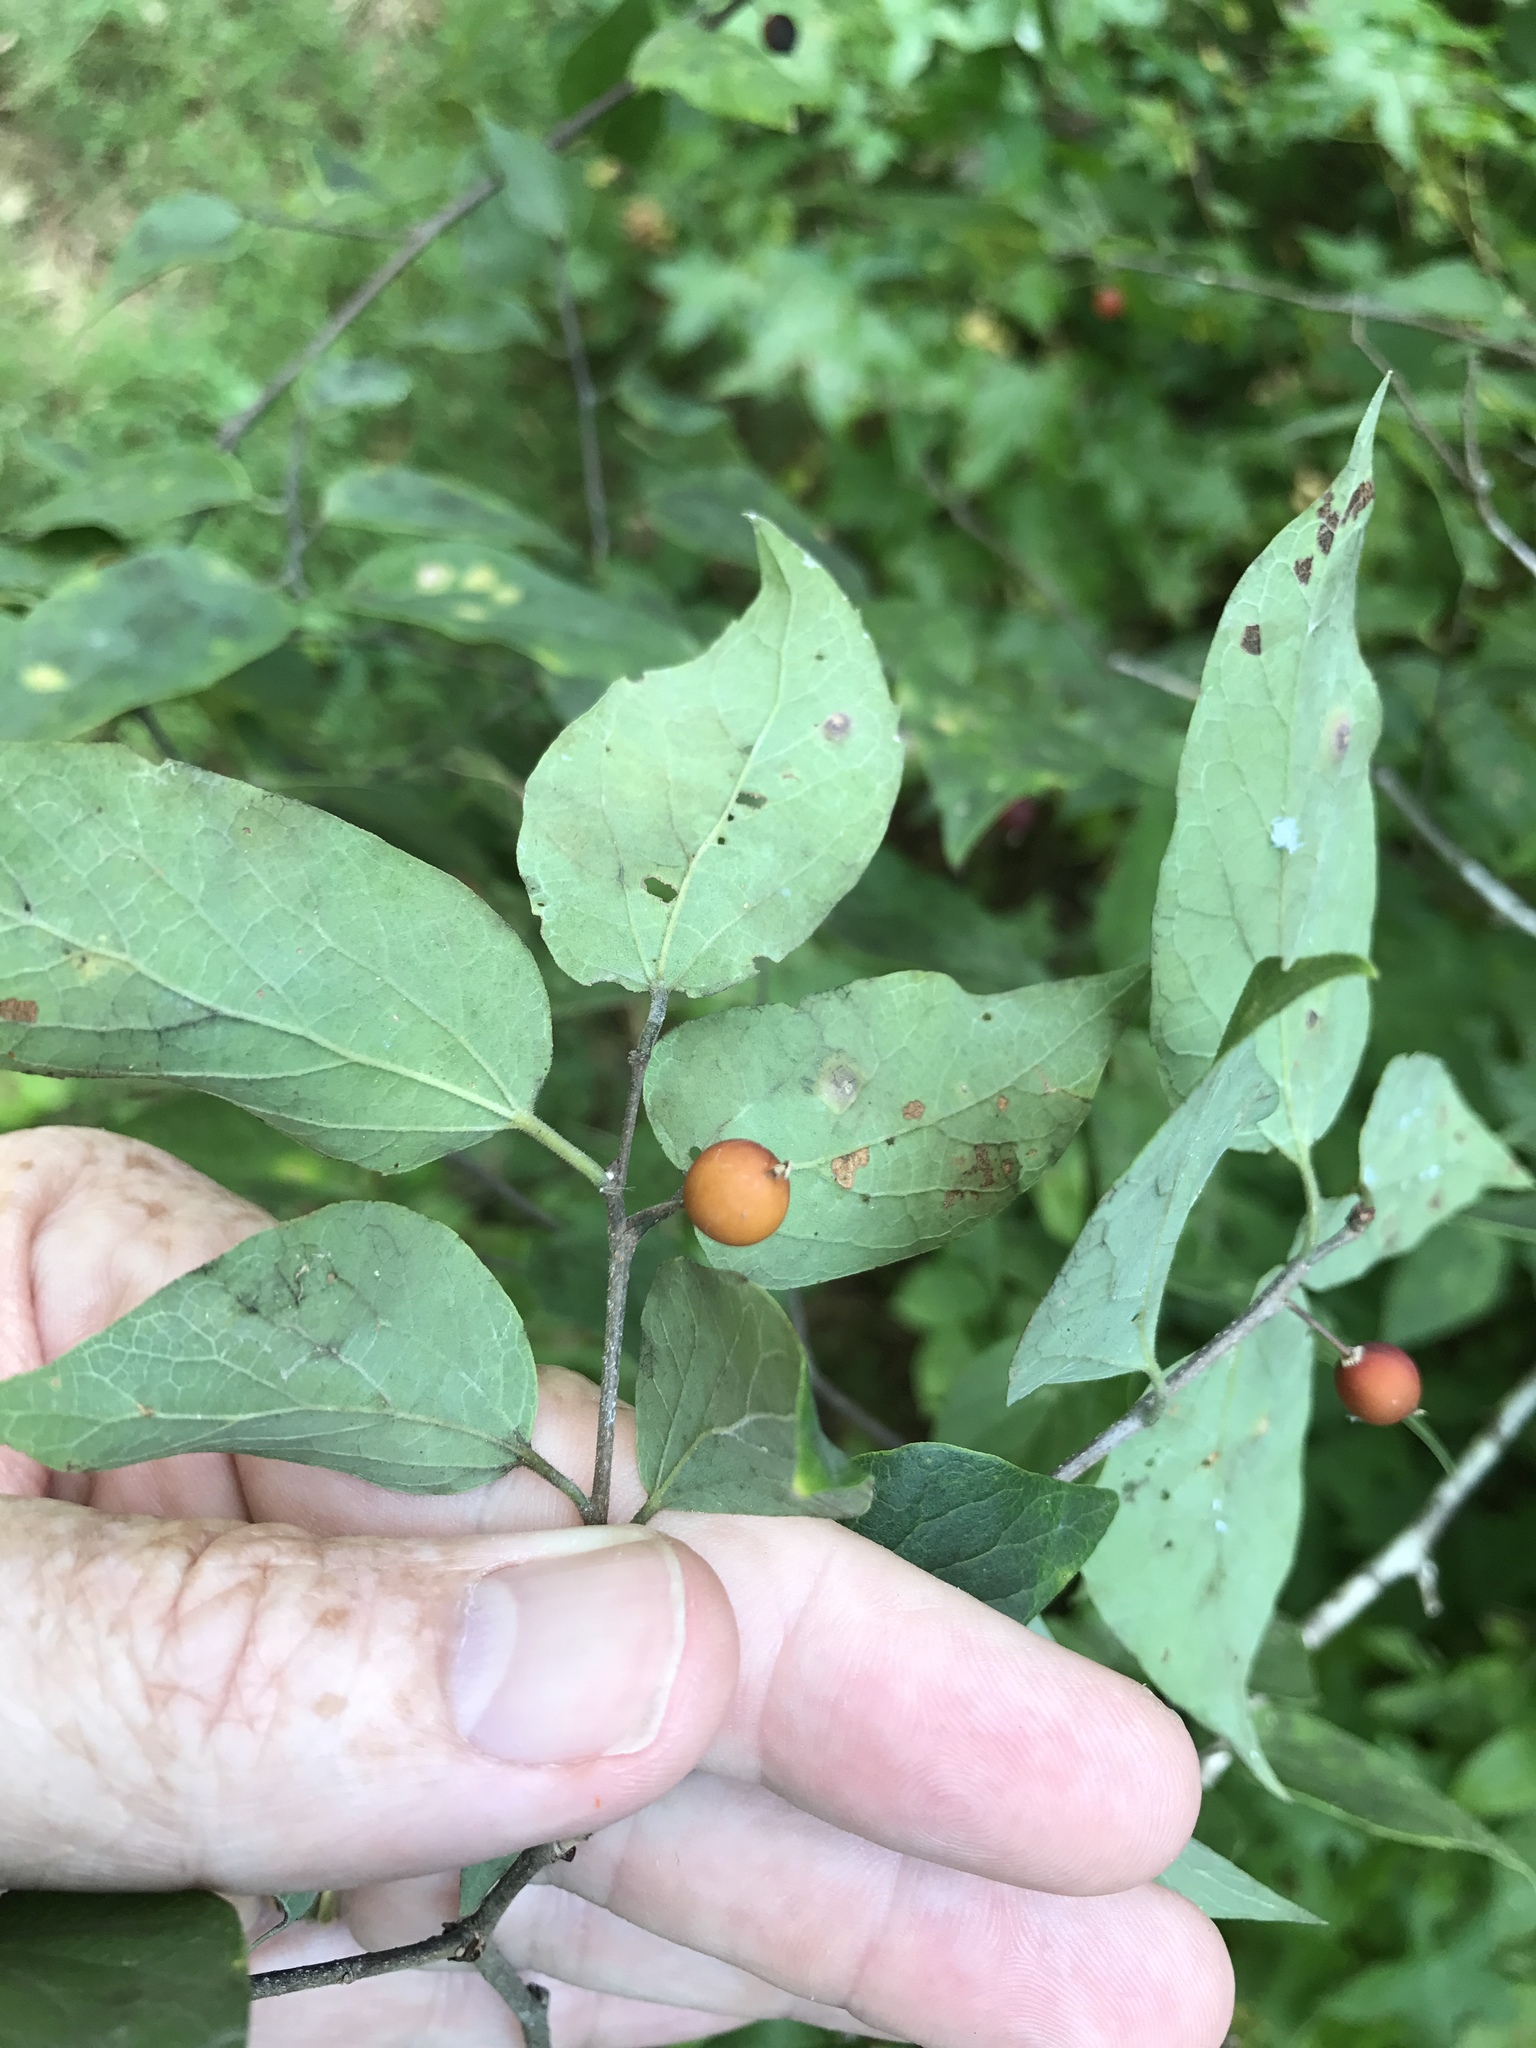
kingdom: Plantae
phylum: Tracheophyta
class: Magnoliopsida
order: Rosales
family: Cannabaceae
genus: Celtis
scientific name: Celtis tenuifolia
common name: Georgia hackberry
